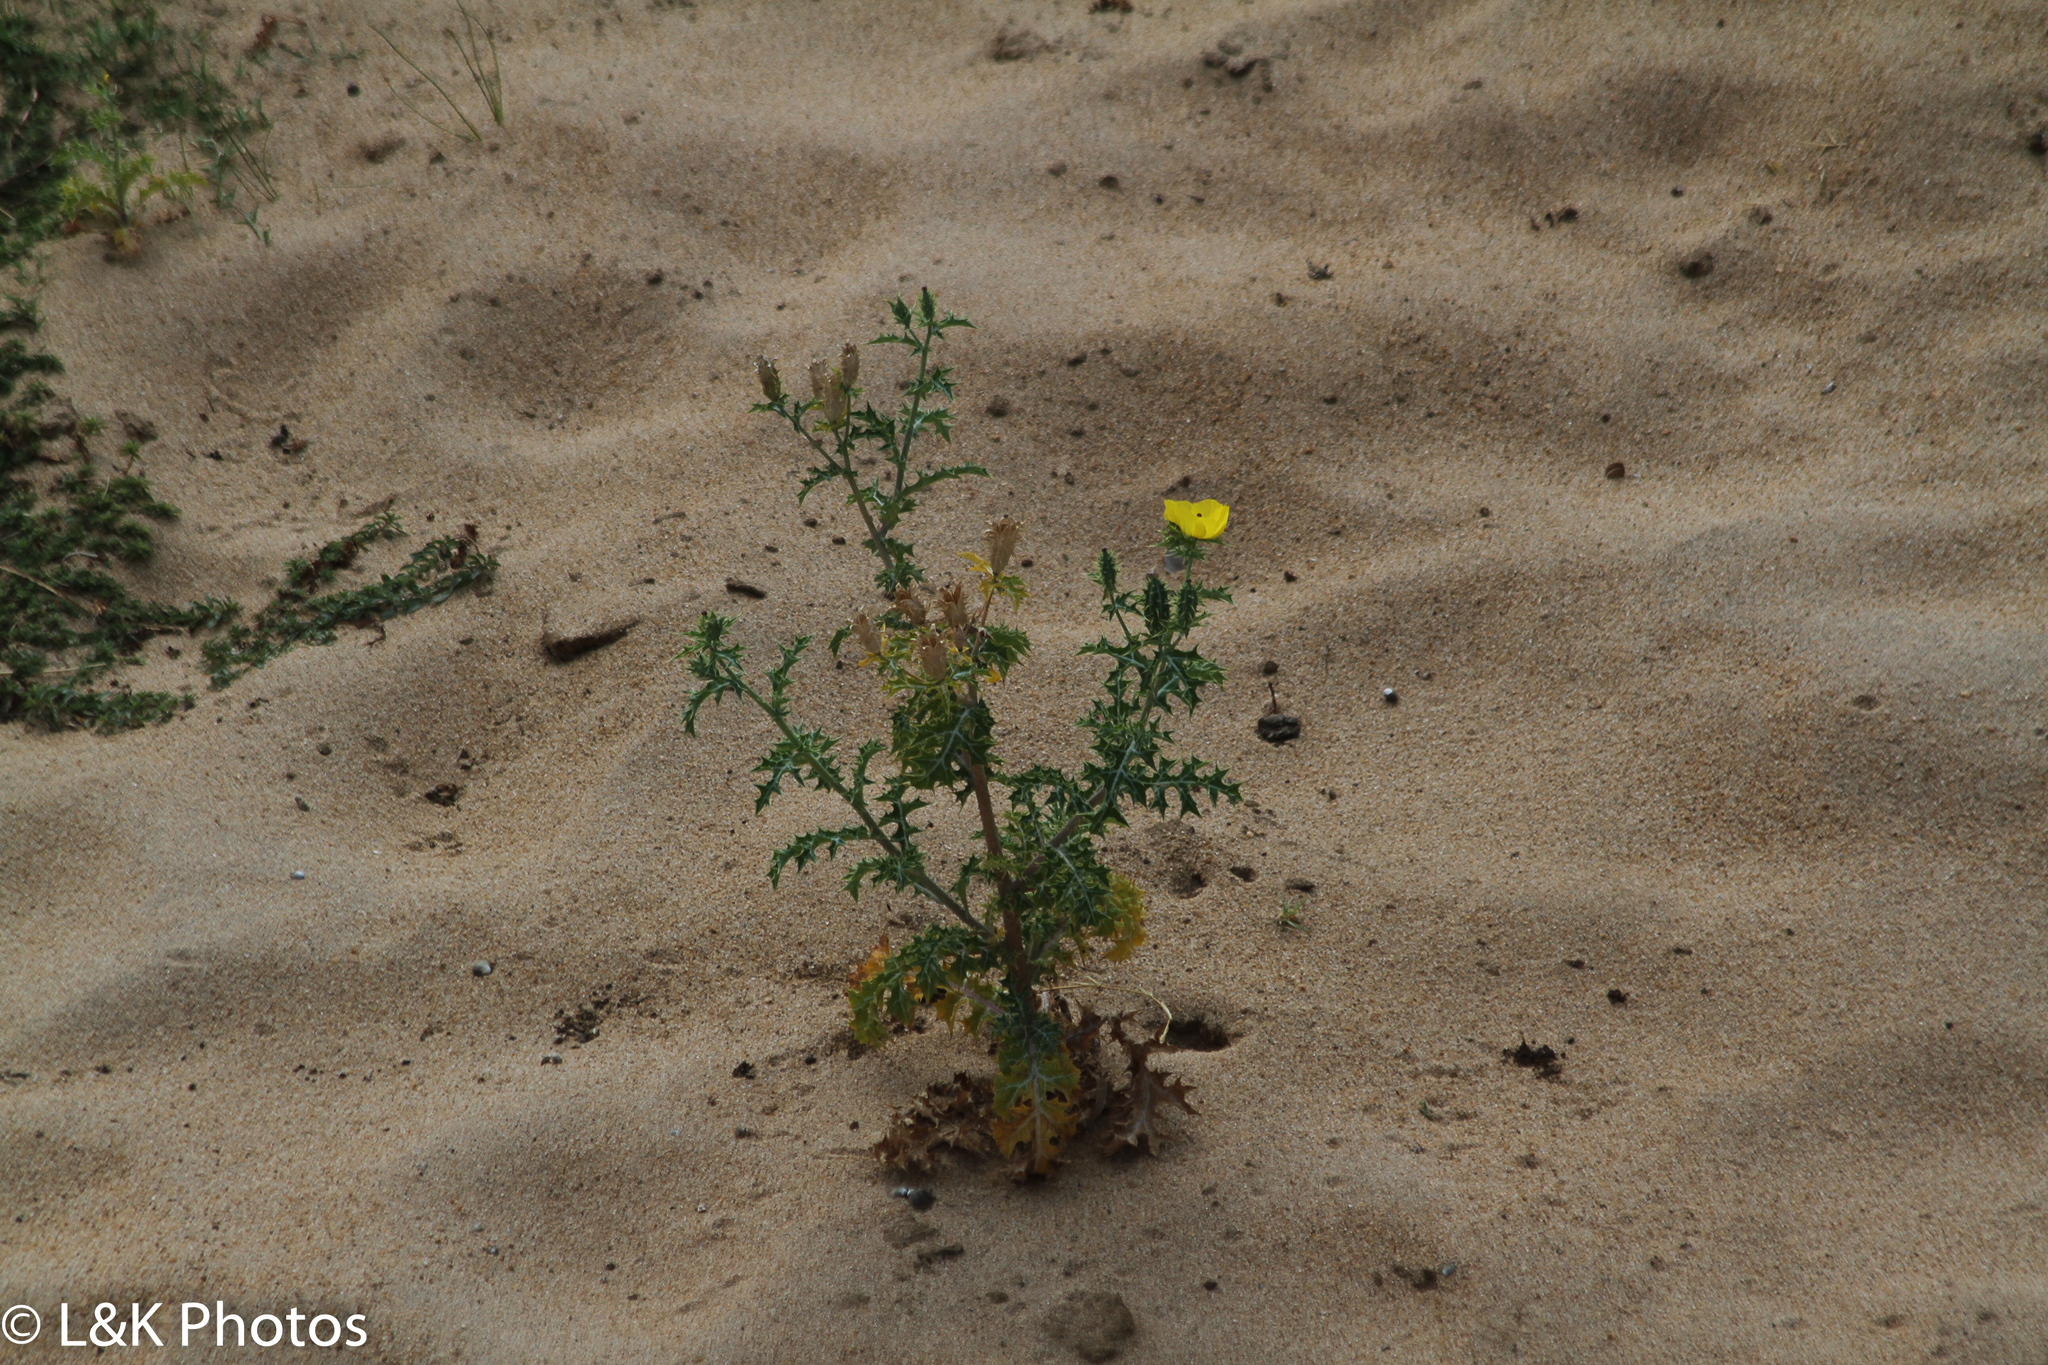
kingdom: Plantae
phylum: Tracheophyta
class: Magnoliopsida
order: Ranunculales
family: Papaveraceae
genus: Argemone
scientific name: Argemone mexicana
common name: Mexican poppy
